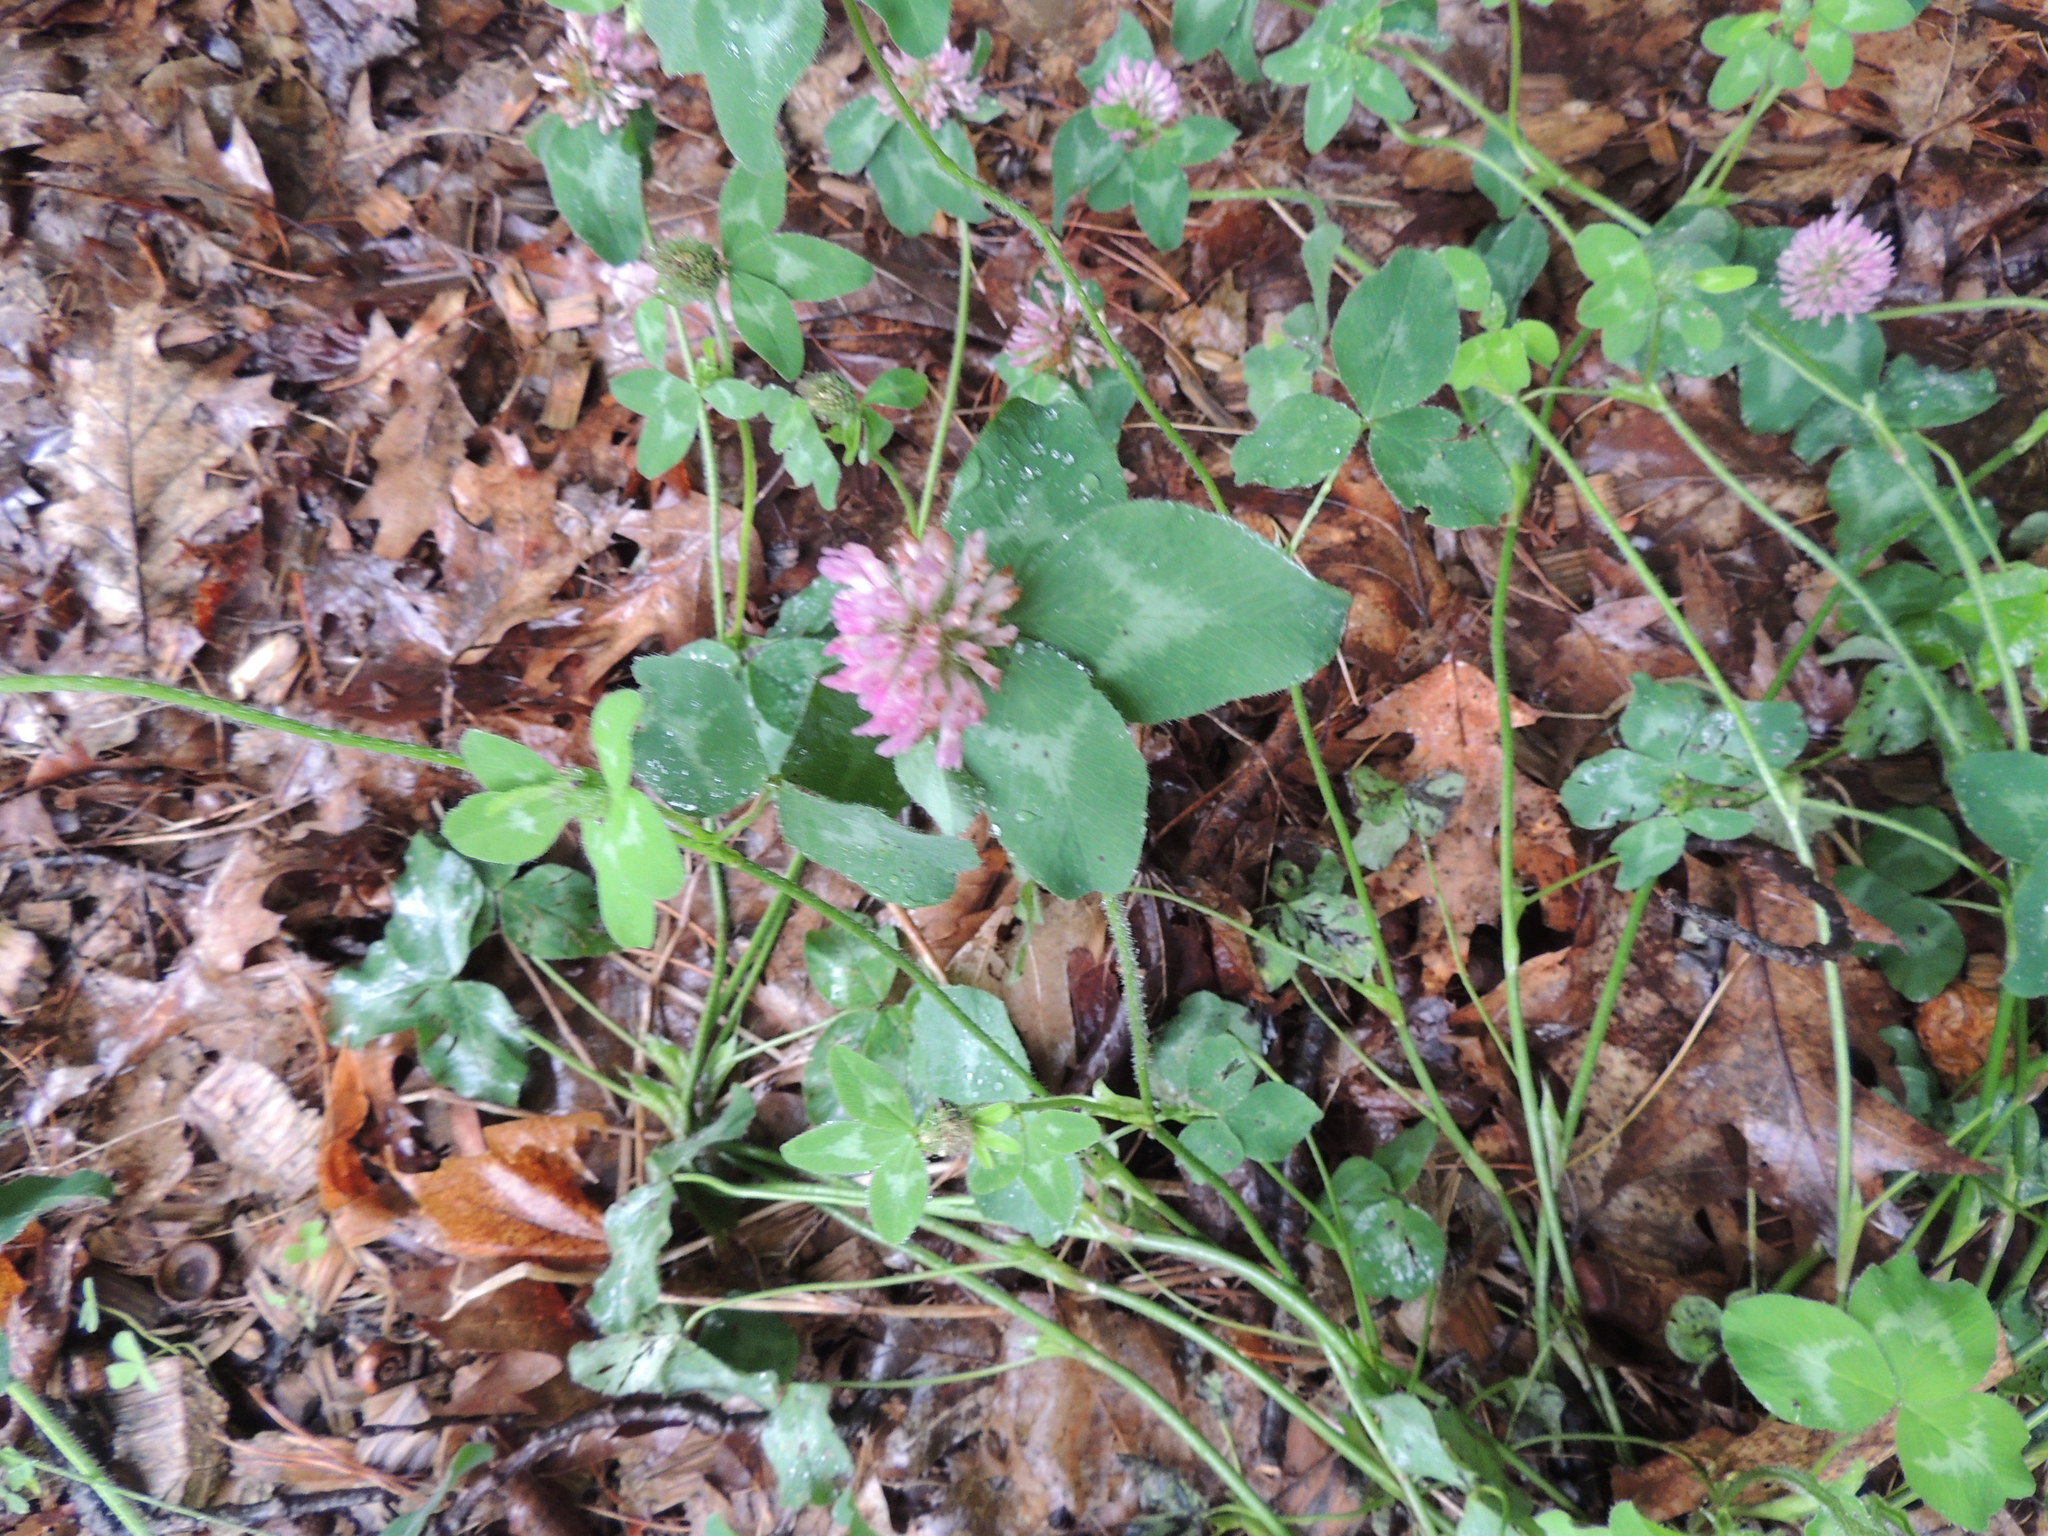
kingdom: Plantae
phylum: Tracheophyta
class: Magnoliopsida
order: Fabales
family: Fabaceae
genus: Trifolium
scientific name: Trifolium pratense
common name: Red clover
